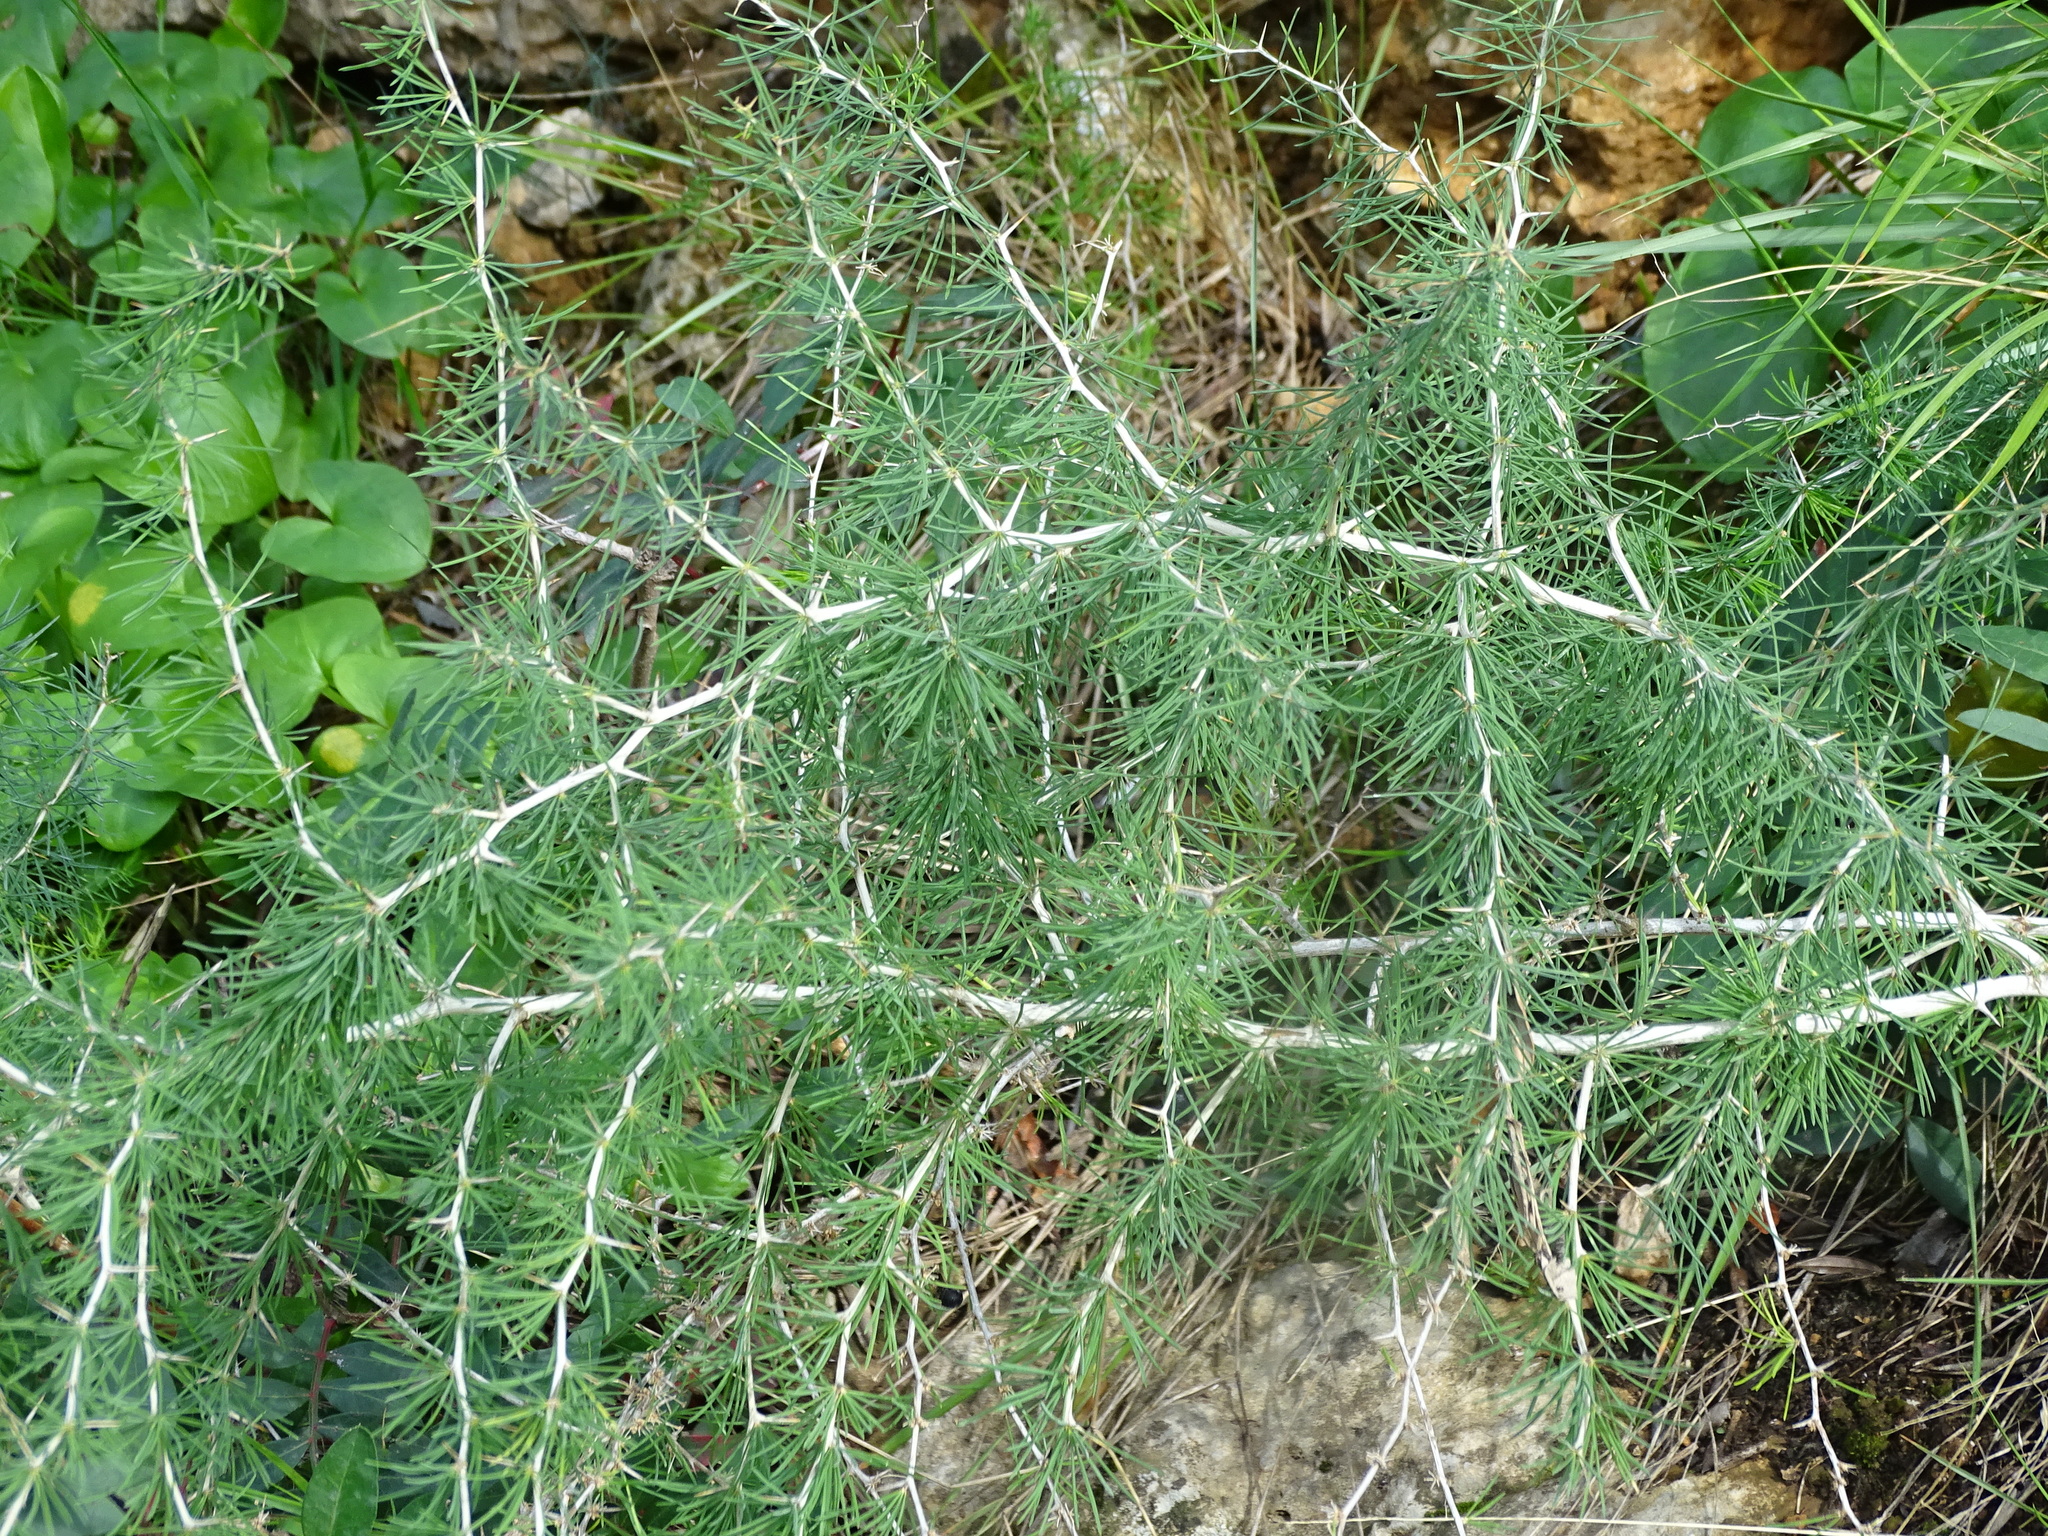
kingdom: Plantae
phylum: Tracheophyta
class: Liliopsida
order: Asparagales
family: Asparagaceae
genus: Asparagus
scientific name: Asparagus albus
